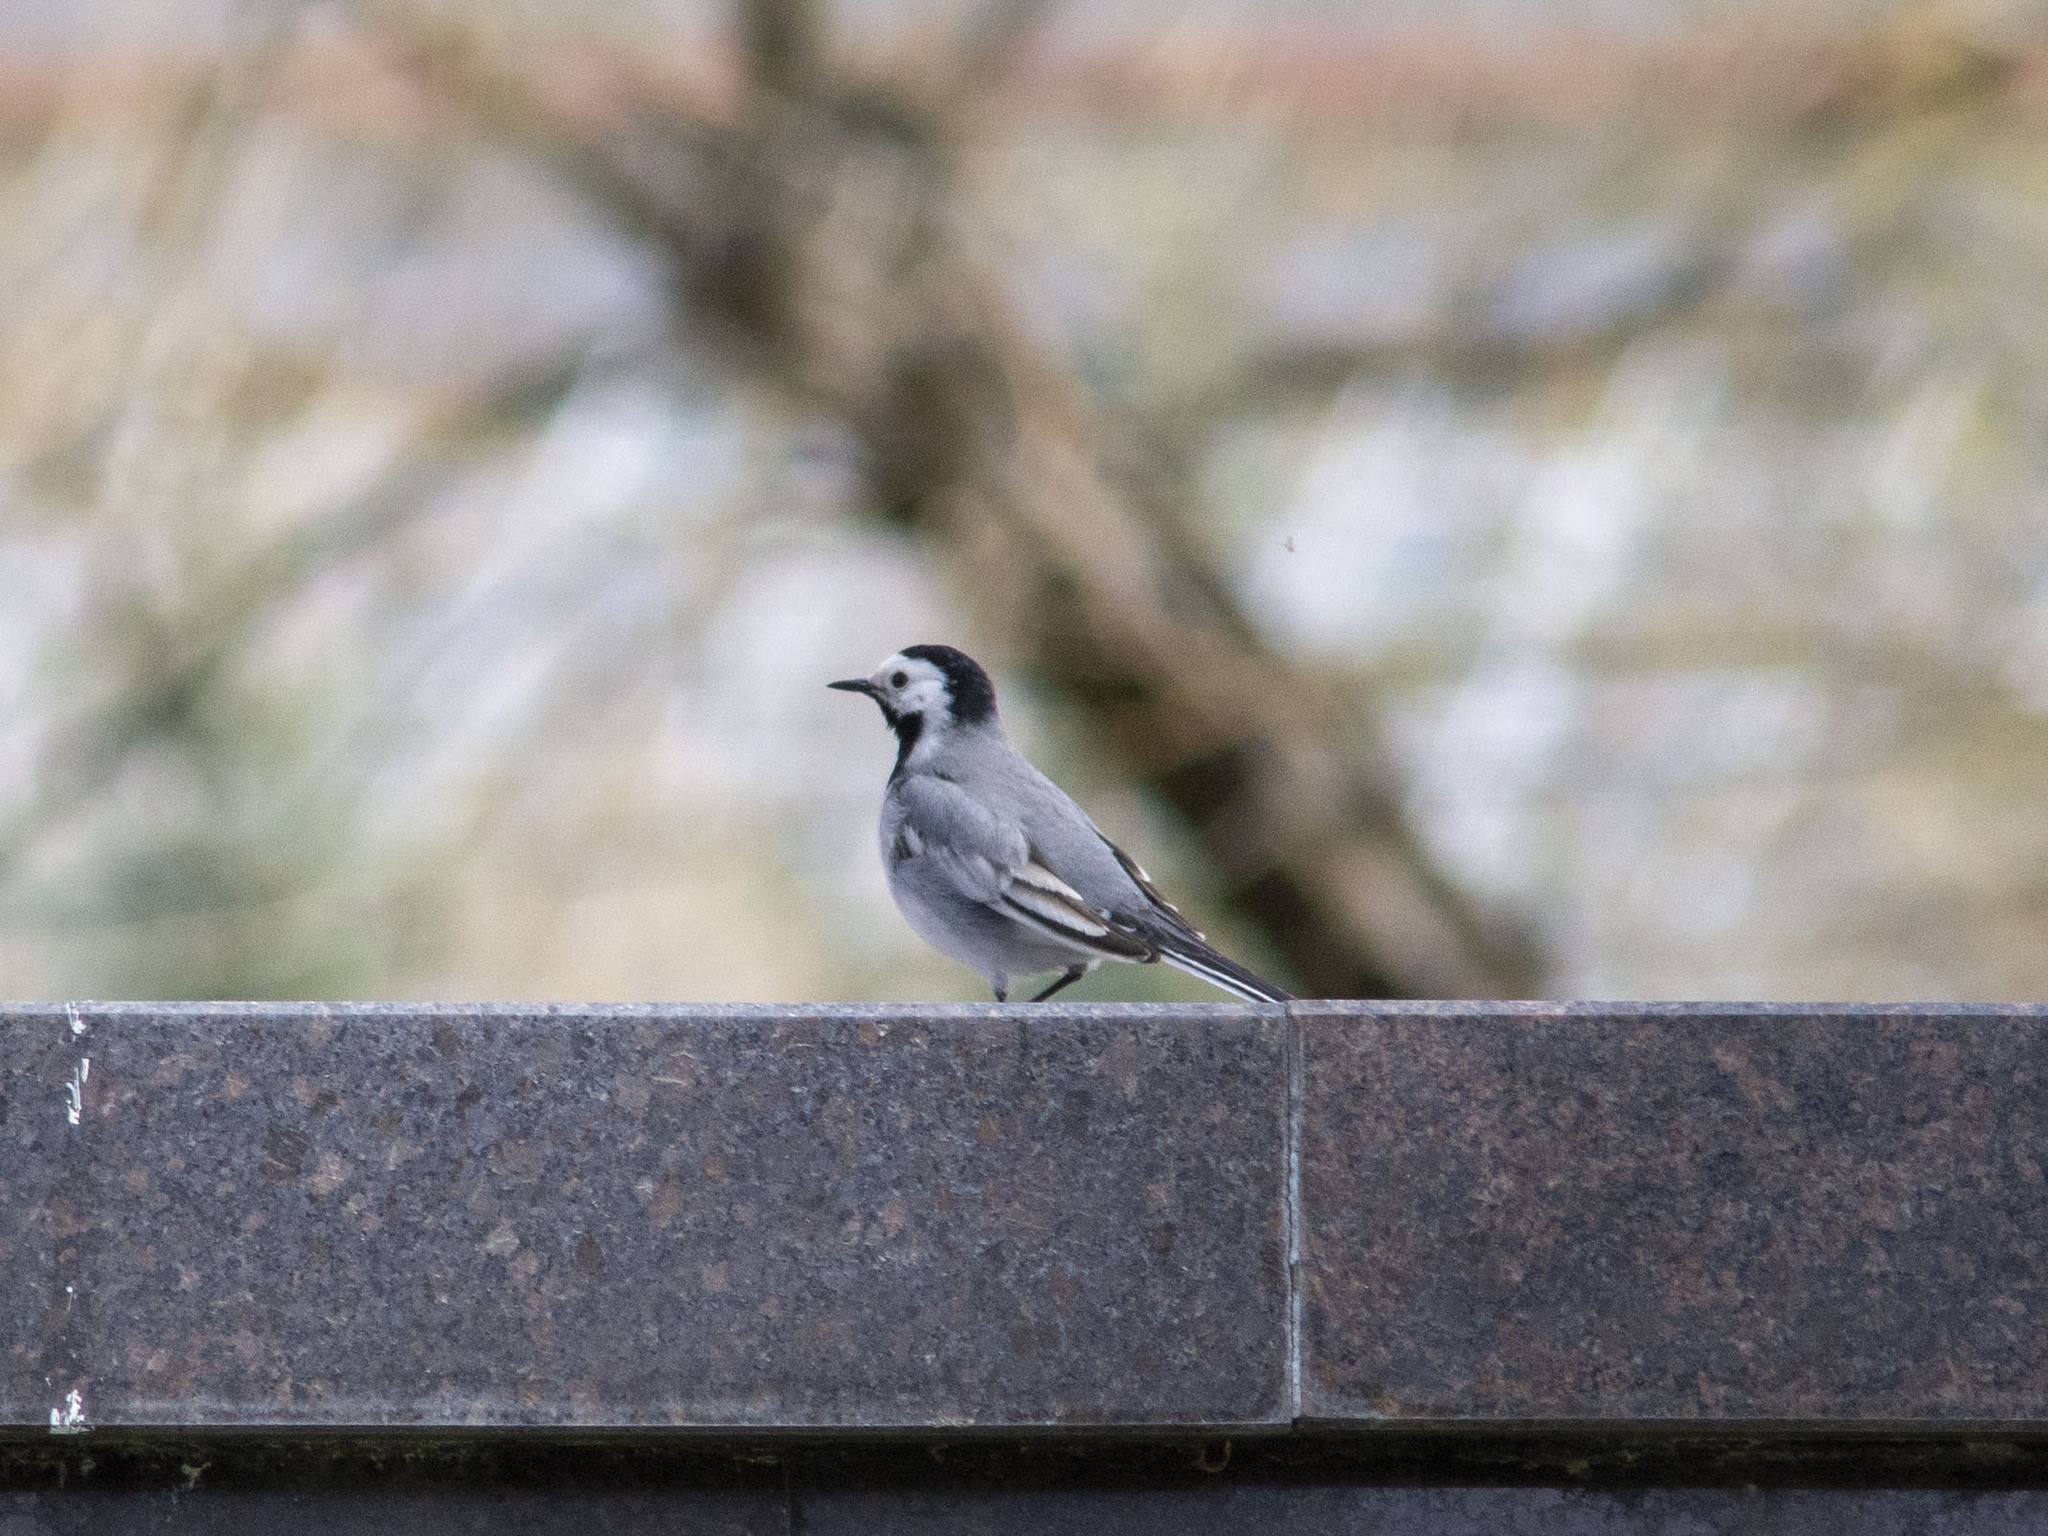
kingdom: Animalia
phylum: Chordata
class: Aves
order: Passeriformes
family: Motacillidae
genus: Motacilla
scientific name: Motacilla alba
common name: White wagtail
